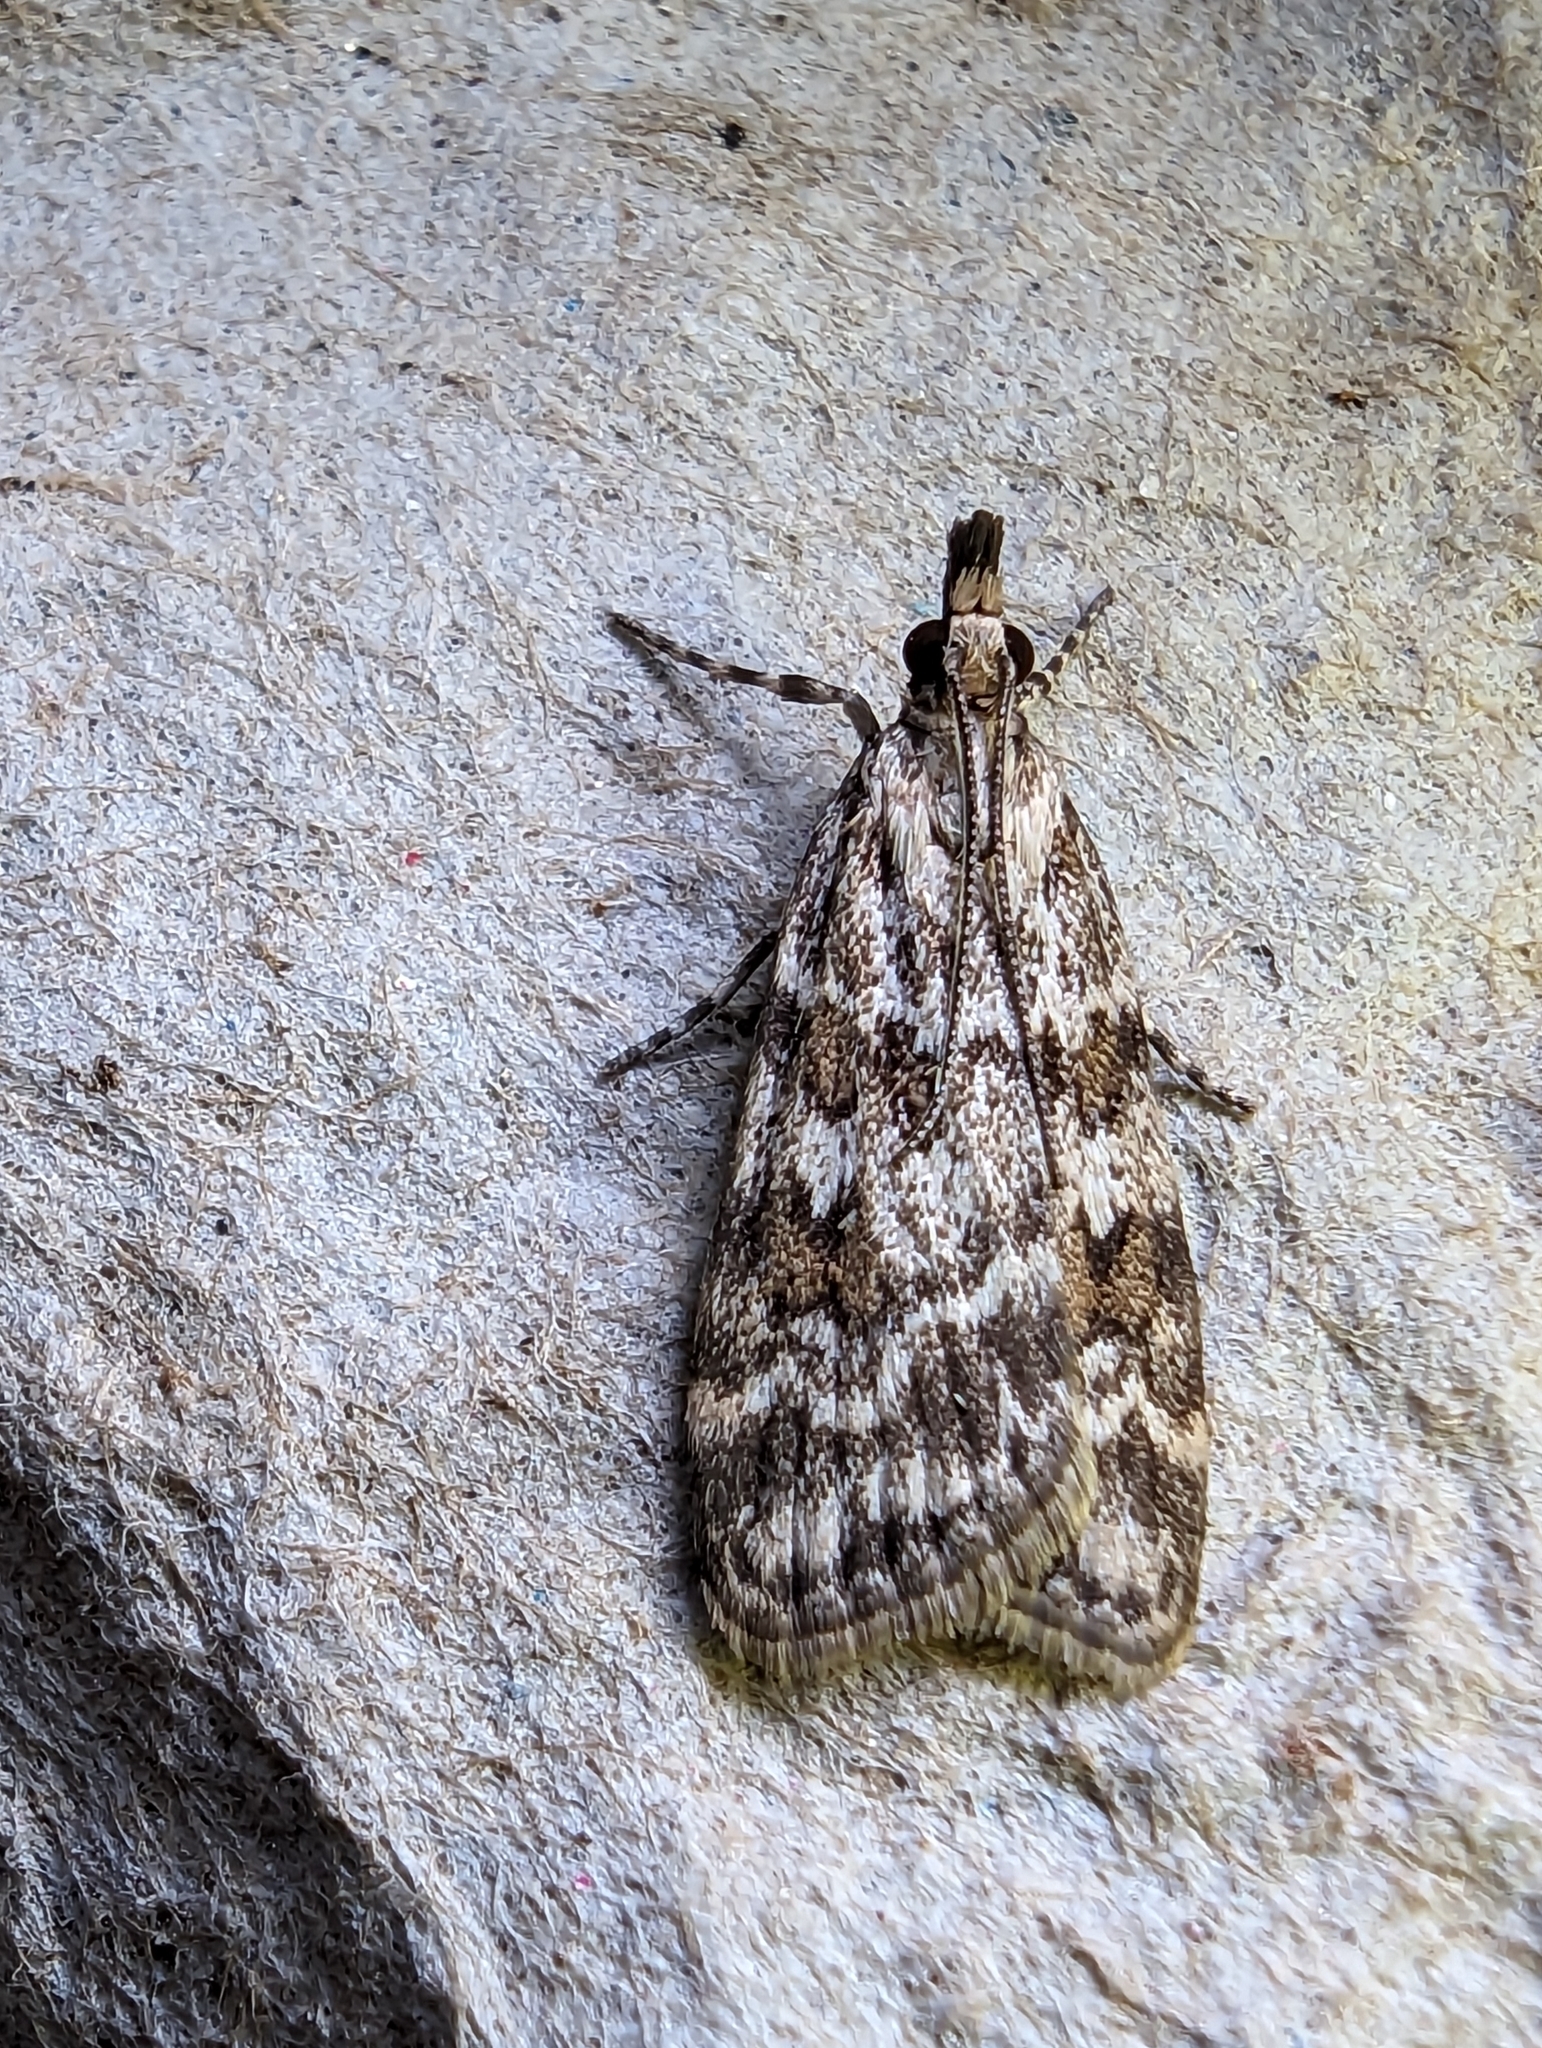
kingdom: Animalia
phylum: Arthropoda
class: Insecta
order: Lepidoptera
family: Crambidae
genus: Scoparia
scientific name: Scoparia pyralella
